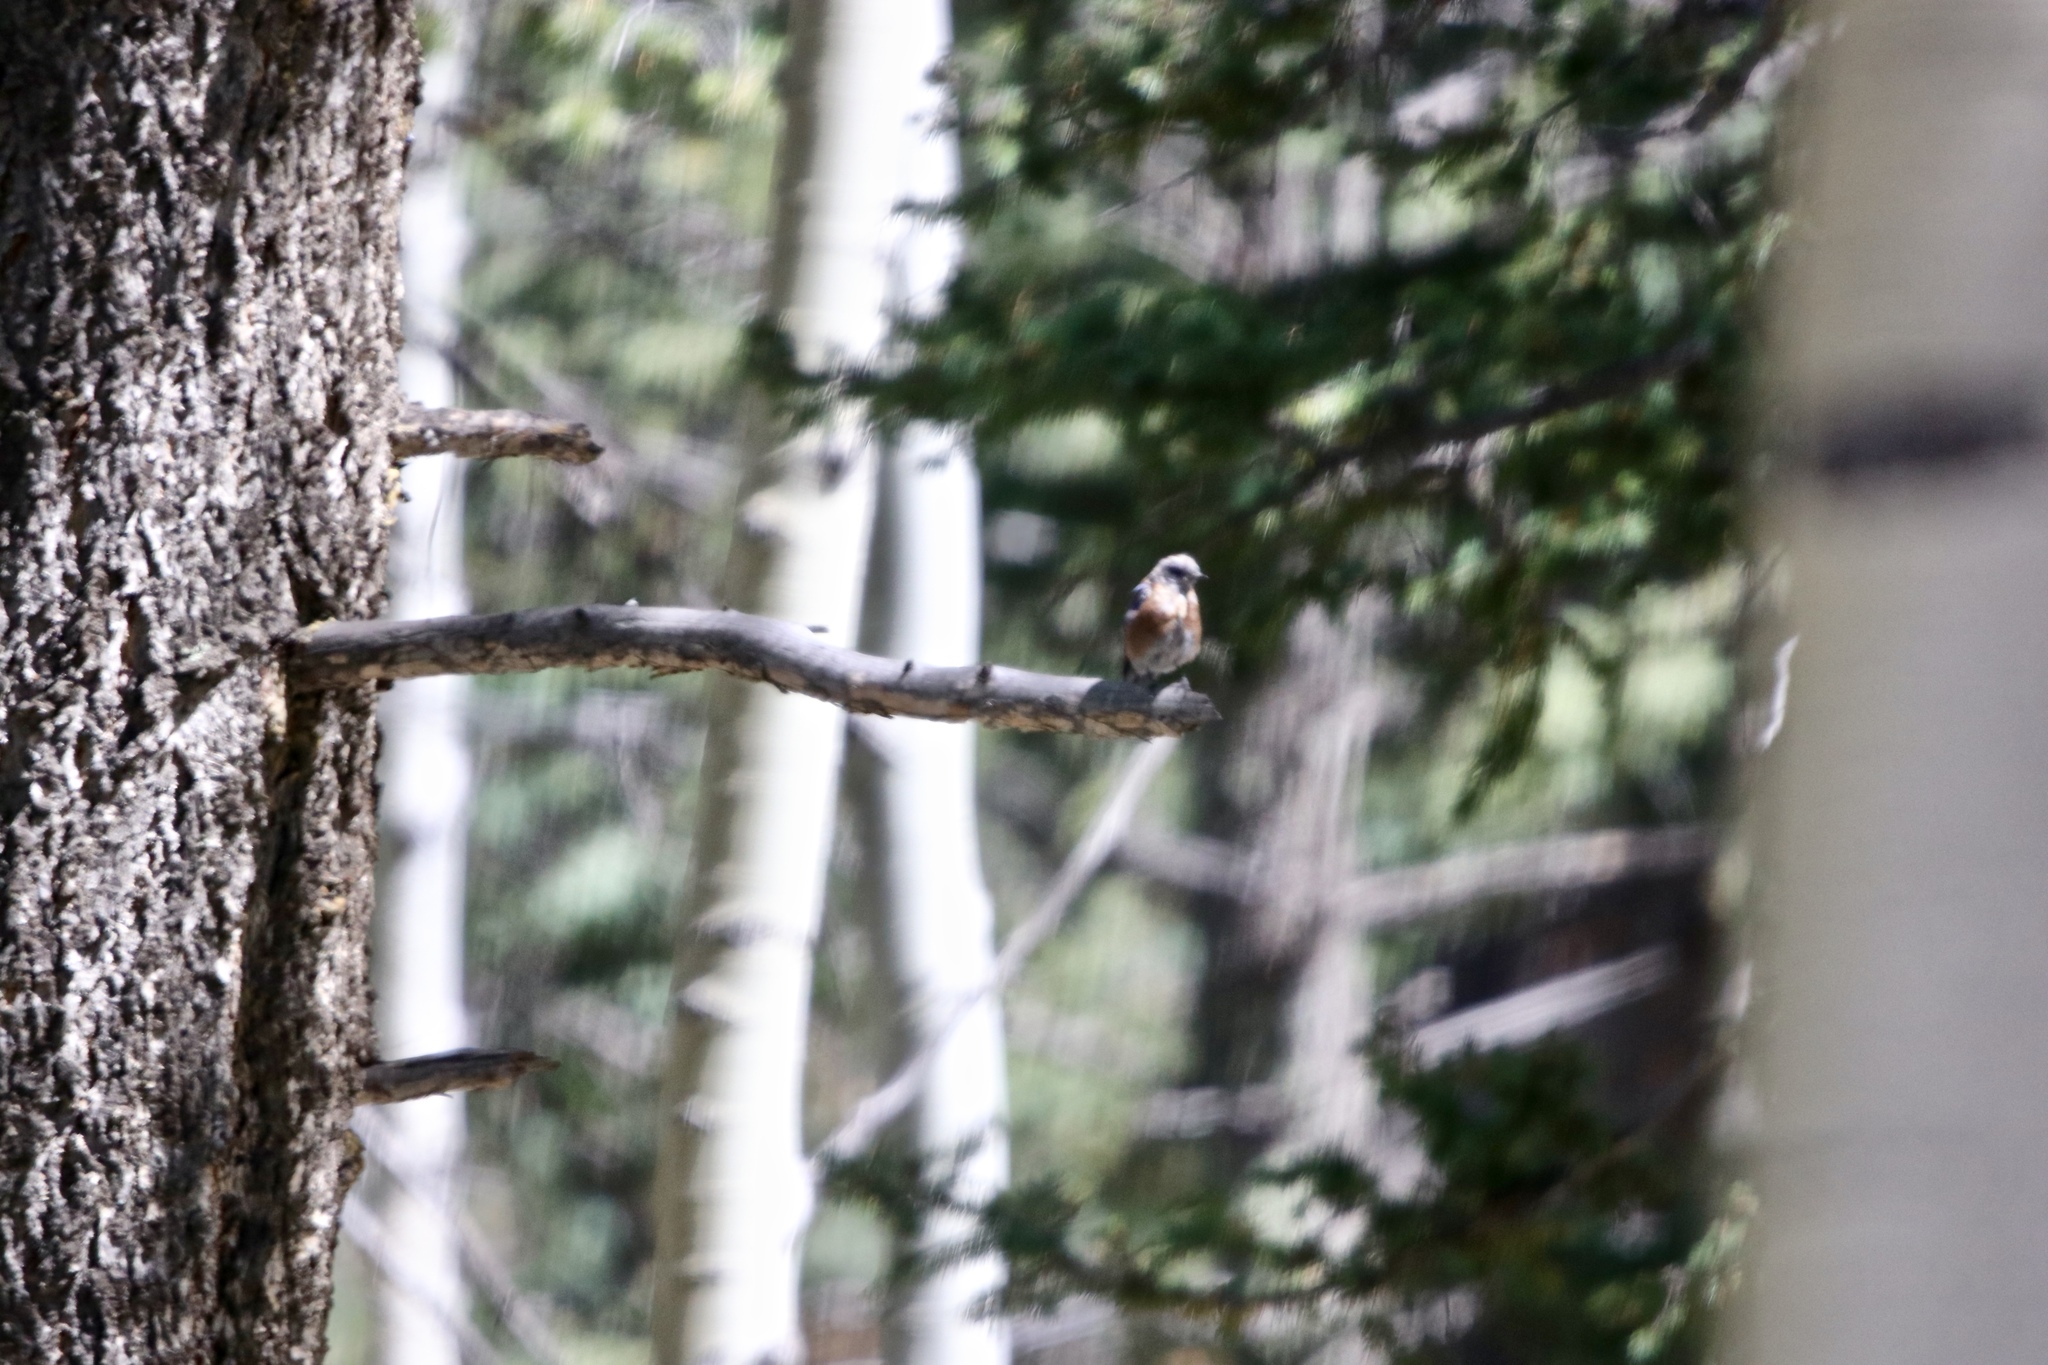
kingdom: Animalia
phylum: Chordata
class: Aves
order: Passeriformes
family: Turdidae
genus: Sialia
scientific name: Sialia mexicana
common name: Western bluebird
